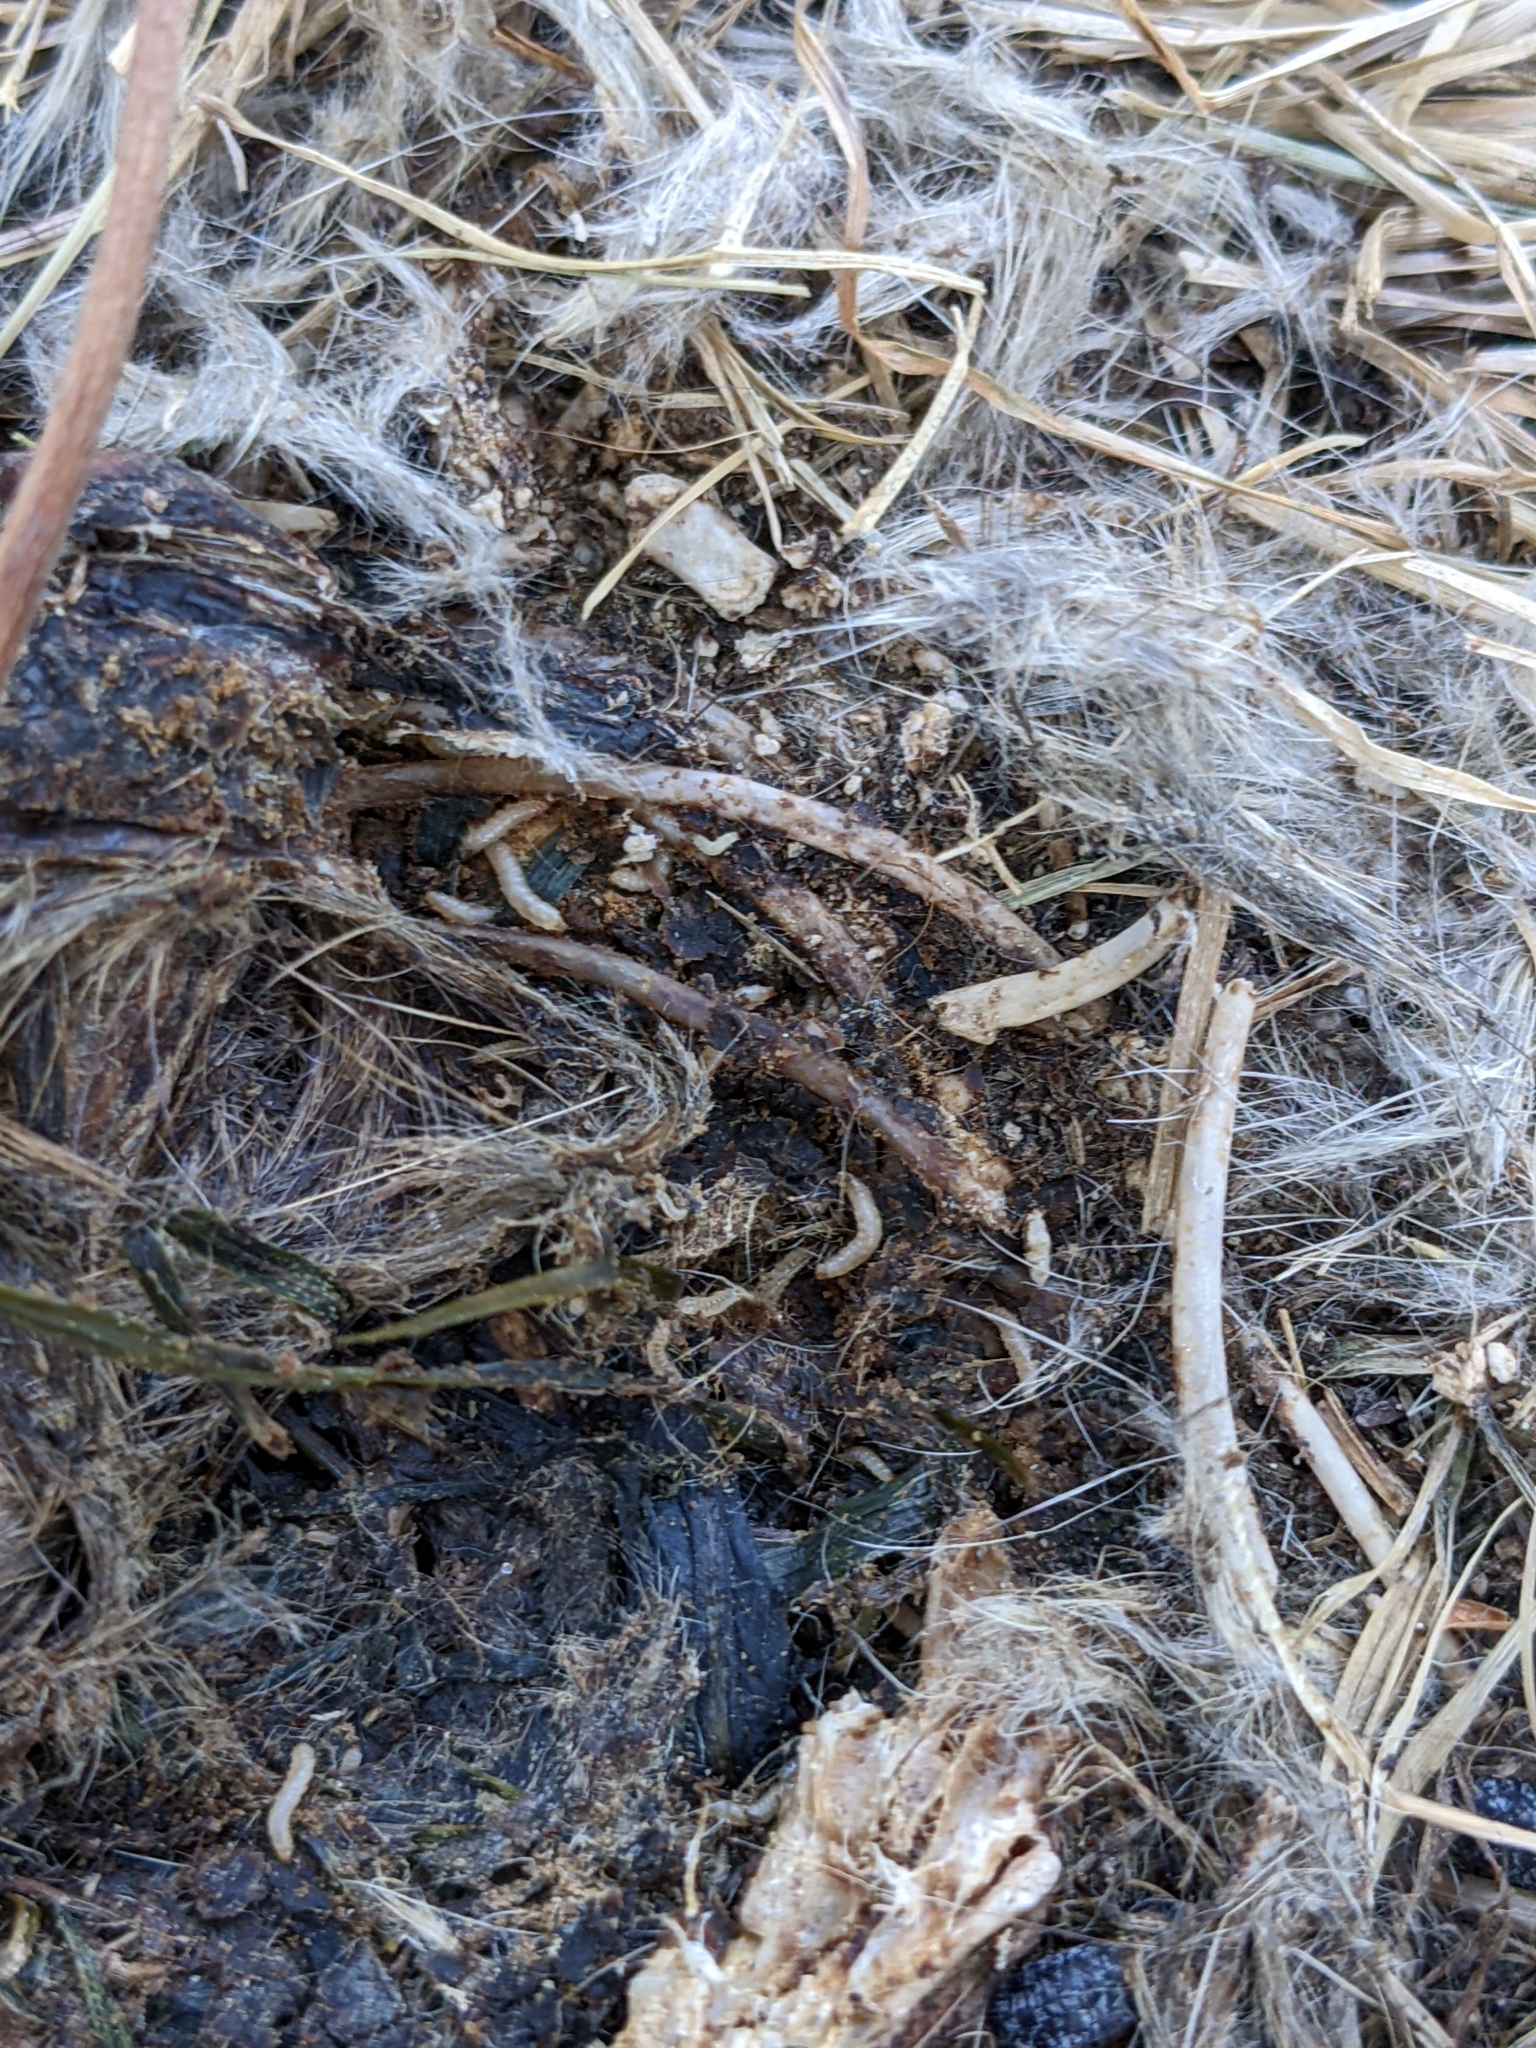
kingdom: Animalia
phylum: Arthropoda
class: Insecta
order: Coleoptera
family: Staphylinidae
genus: Oiceoptoma
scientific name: Oiceoptoma noveboracense
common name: Margined carrion beetle
